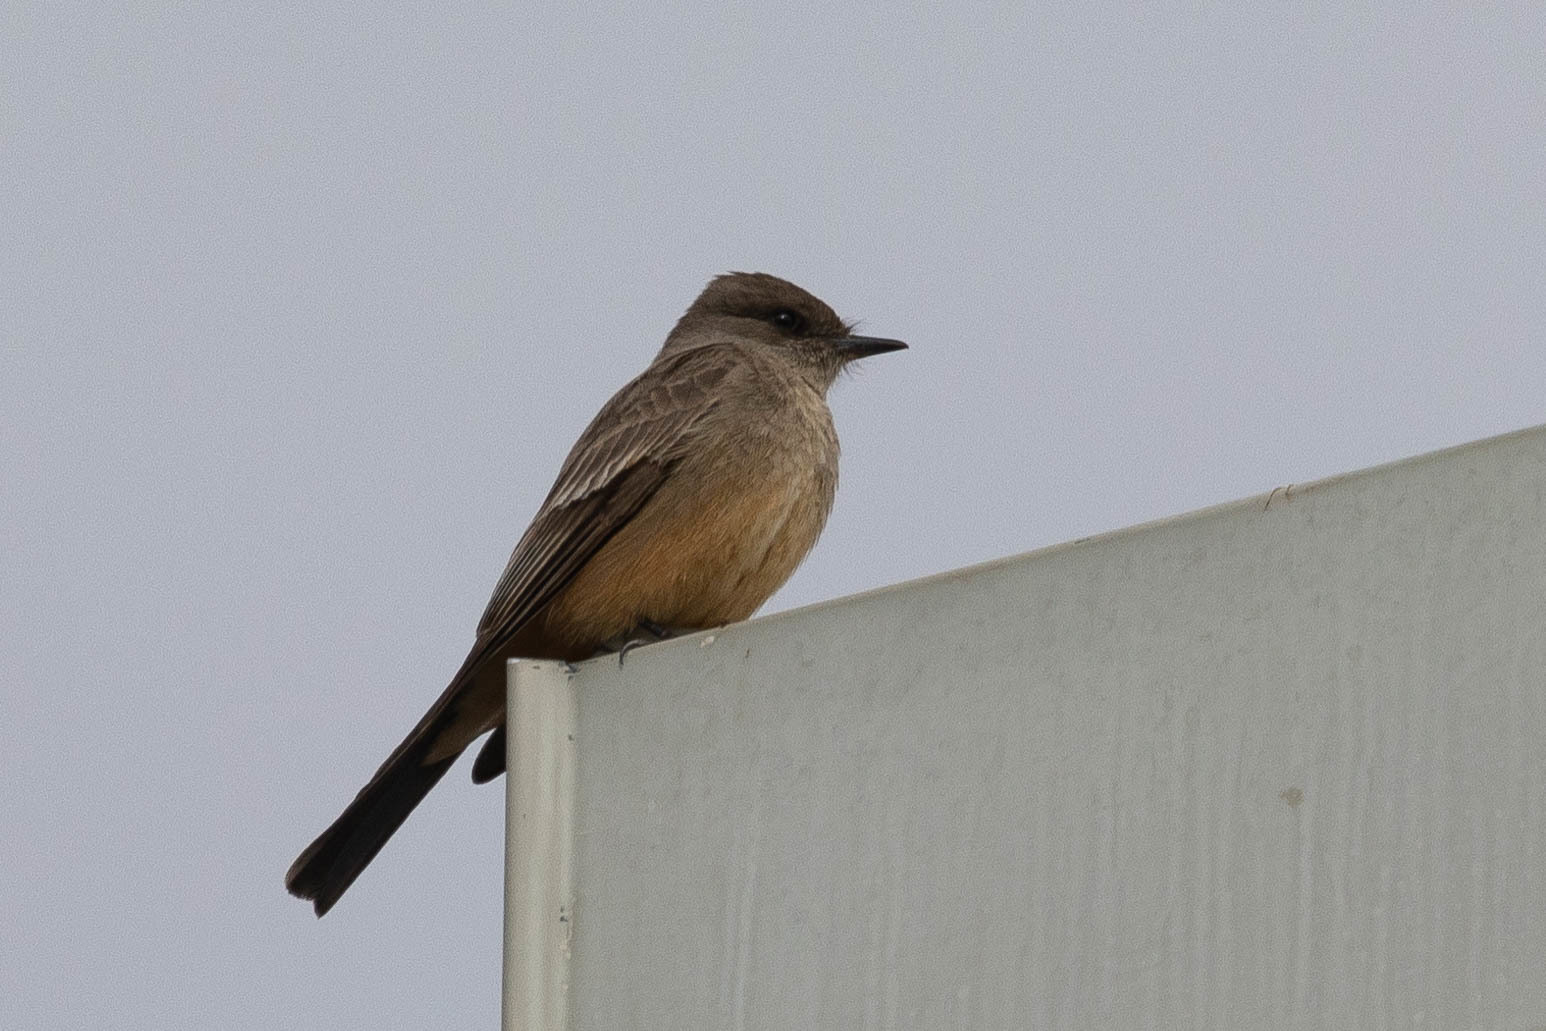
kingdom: Animalia
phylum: Chordata
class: Aves
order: Passeriformes
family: Tyrannidae
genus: Sayornis
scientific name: Sayornis saya
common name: Say's phoebe
